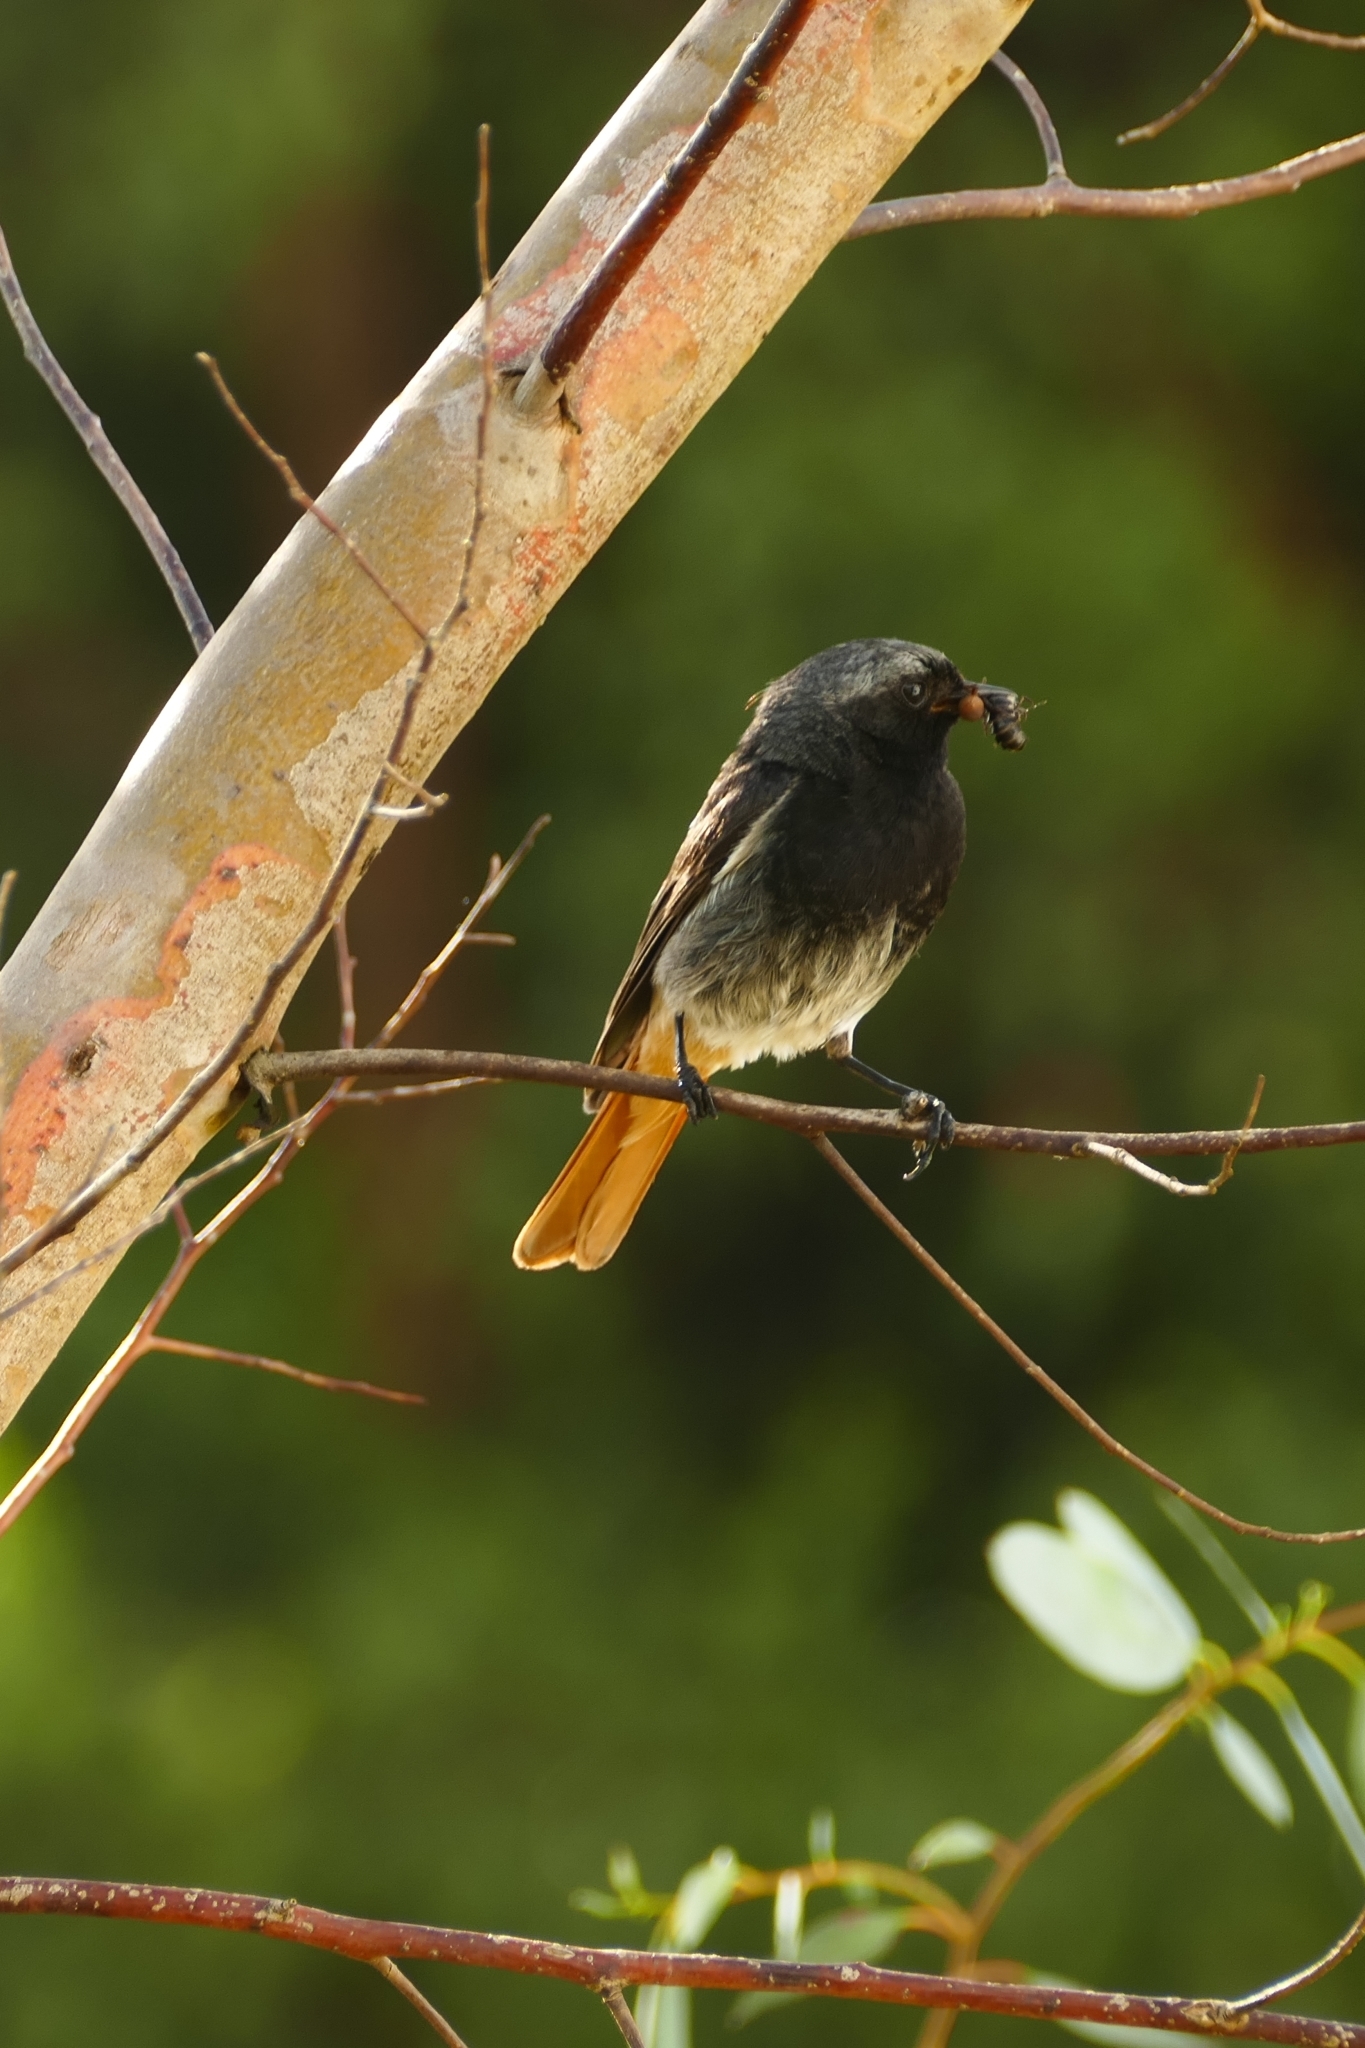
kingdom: Animalia
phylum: Chordata
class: Aves
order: Passeriformes
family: Muscicapidae
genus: Phoenicurus
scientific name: Phoenicurus ochruros
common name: Black redstart
